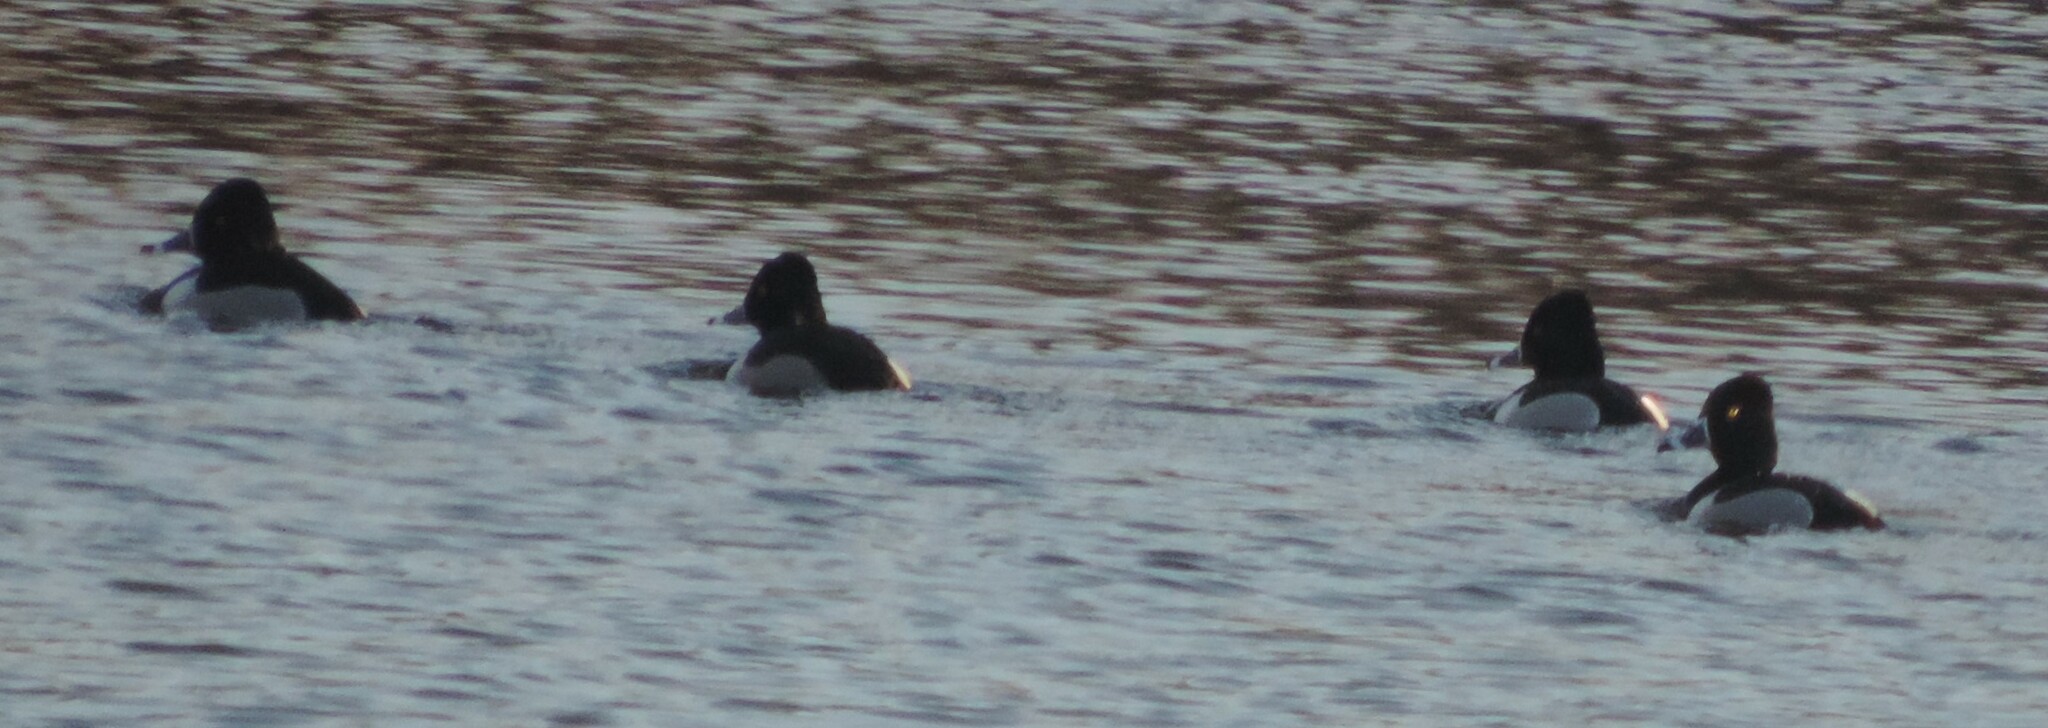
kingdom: Animalia
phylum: Chordata
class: Aves
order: Anseriformes
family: Anatidae
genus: Aythya
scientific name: Aythya collaris
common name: Ring-necked duck
